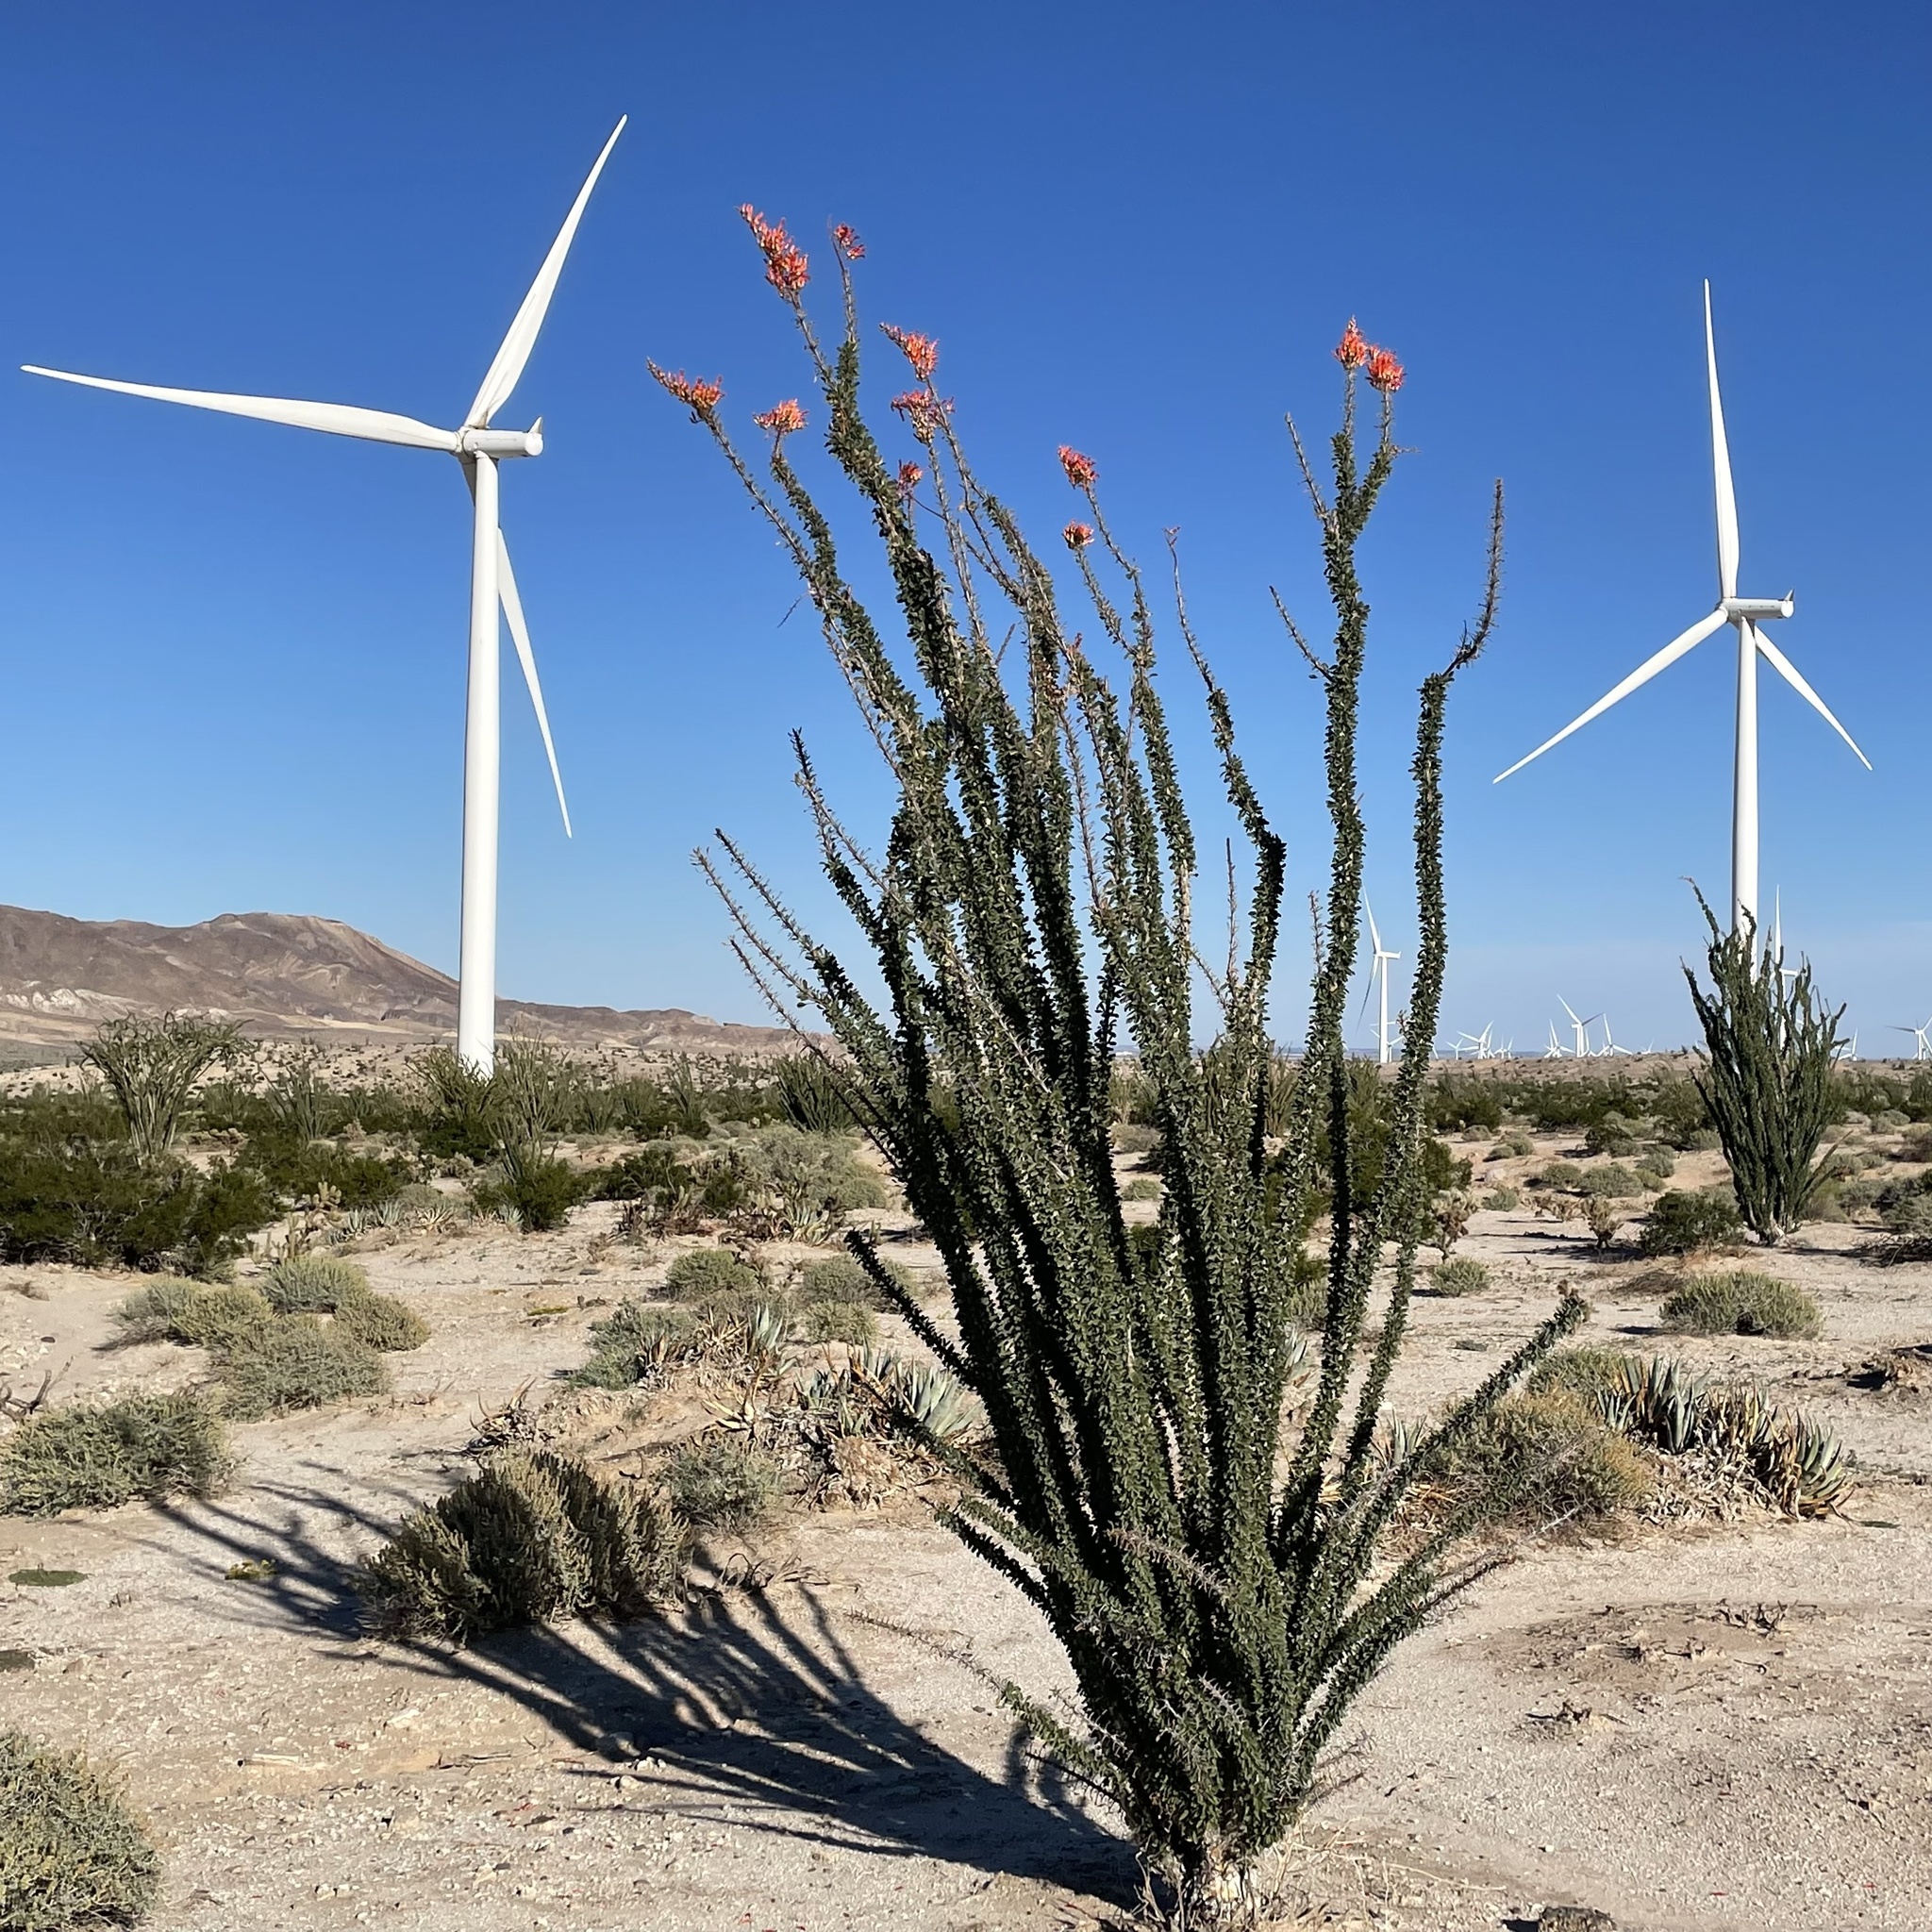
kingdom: Plantae
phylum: Tracheophyta
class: Magnoliopsida
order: Ericales
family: Fouquieriaceae
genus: Fouquieria
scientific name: Fouquieria splendens
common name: Vine-cactus
